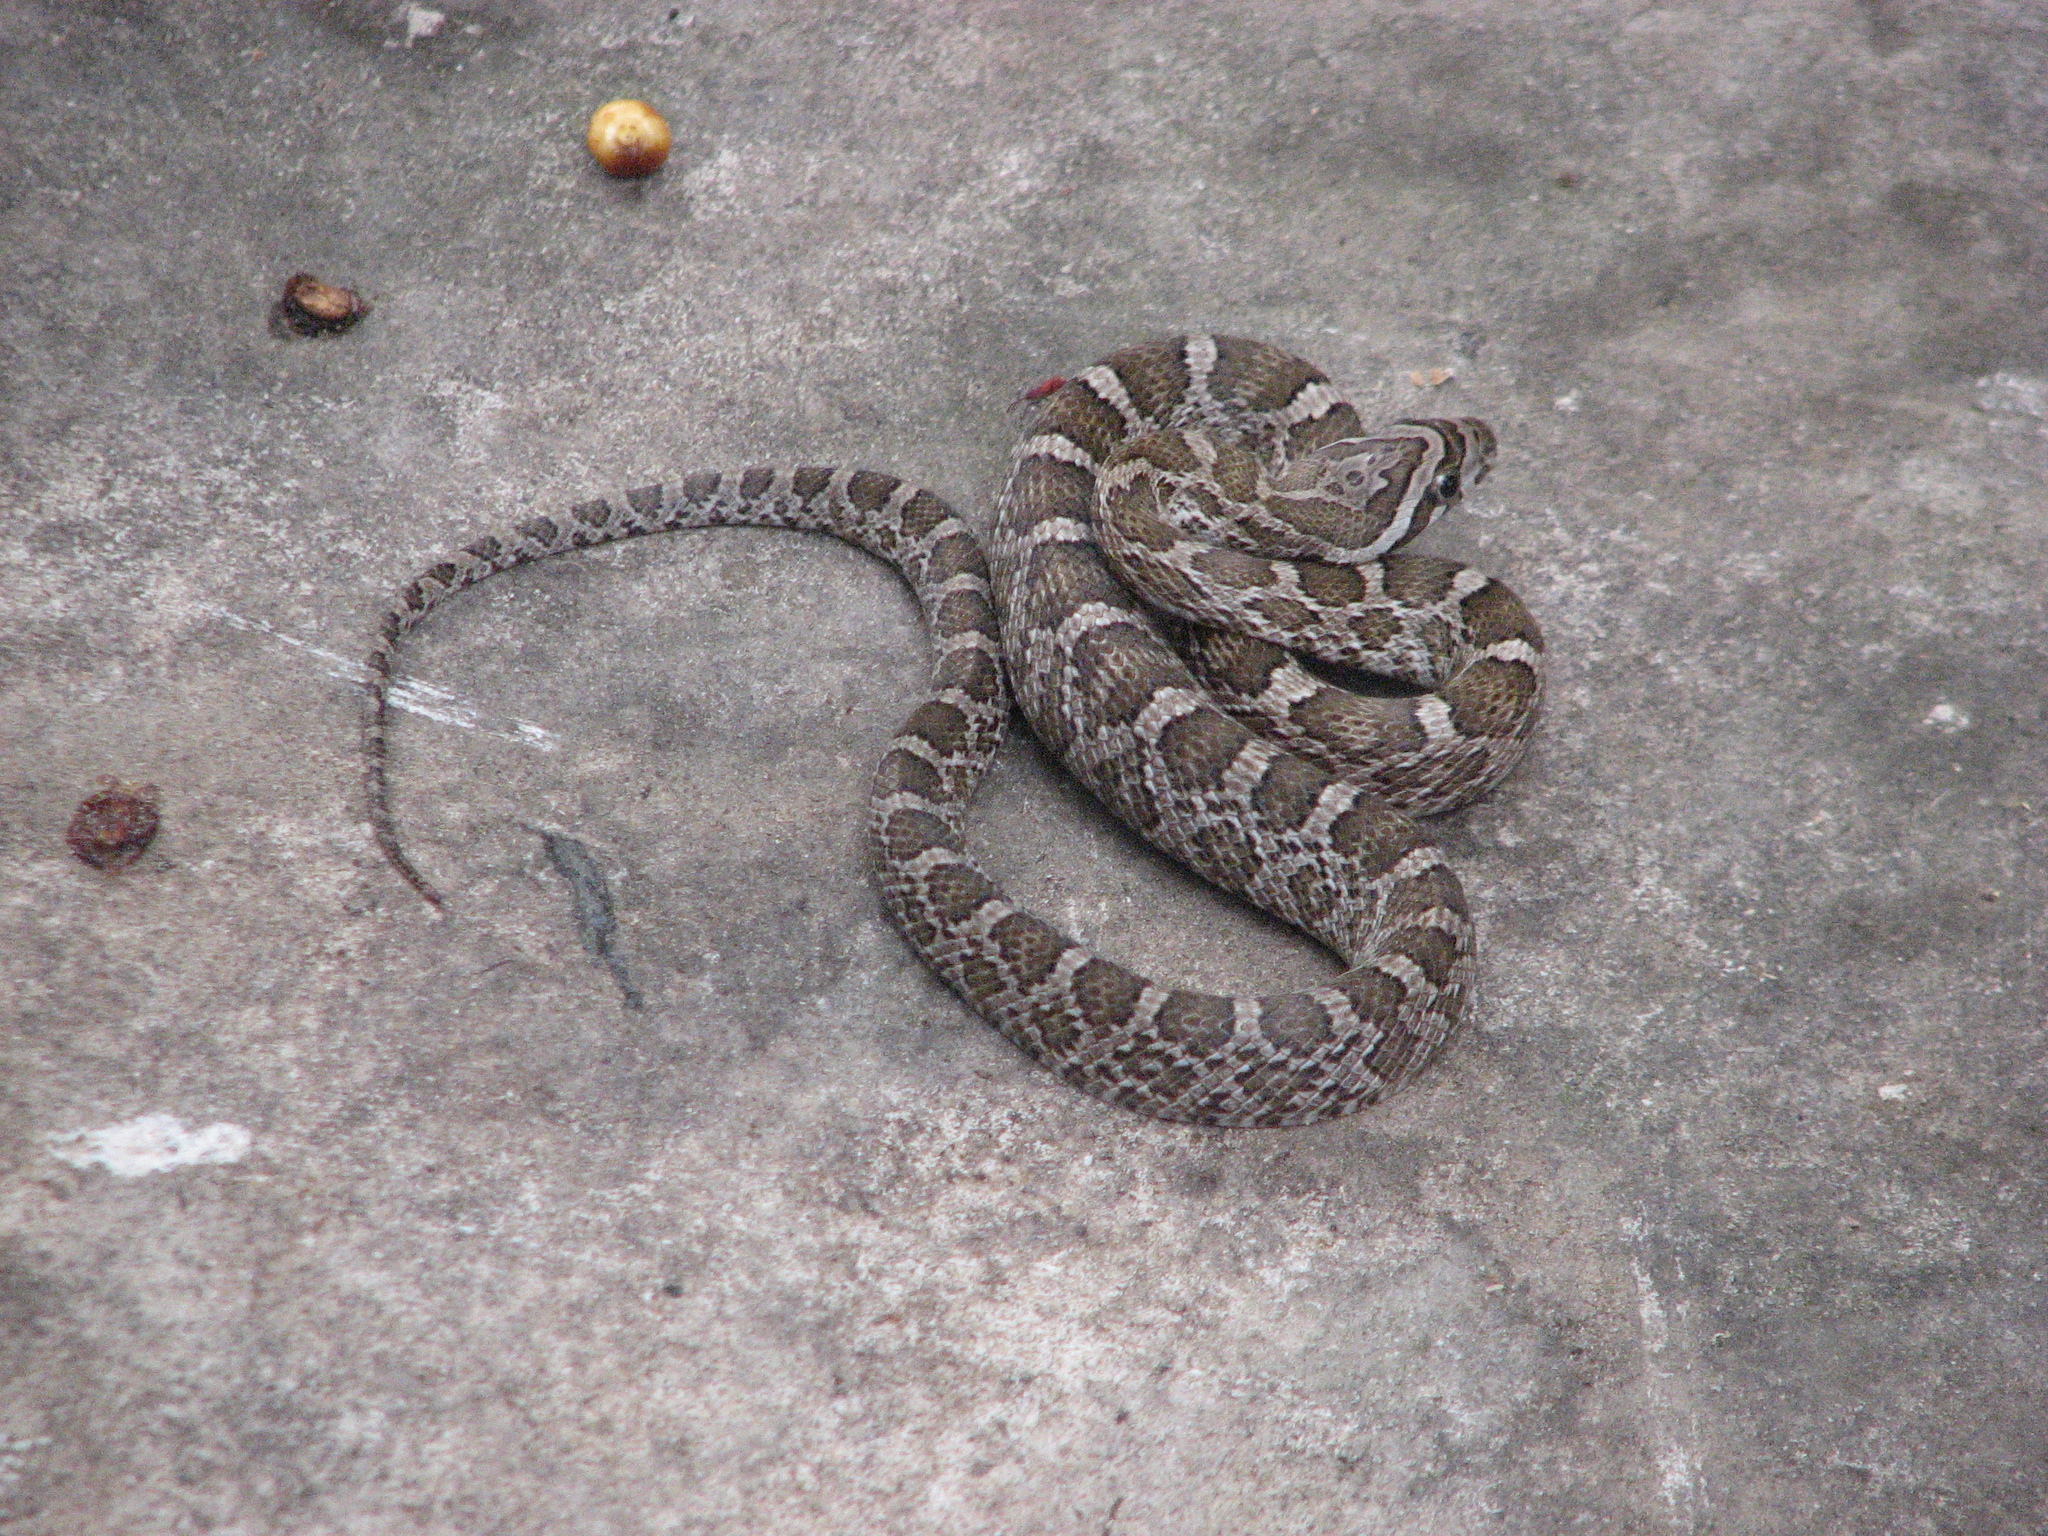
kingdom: Animalia
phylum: Chordata
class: Squamata
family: Colubridae
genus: Pantherophis
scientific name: Pantherophis emoryi
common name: Great plains rat snake
